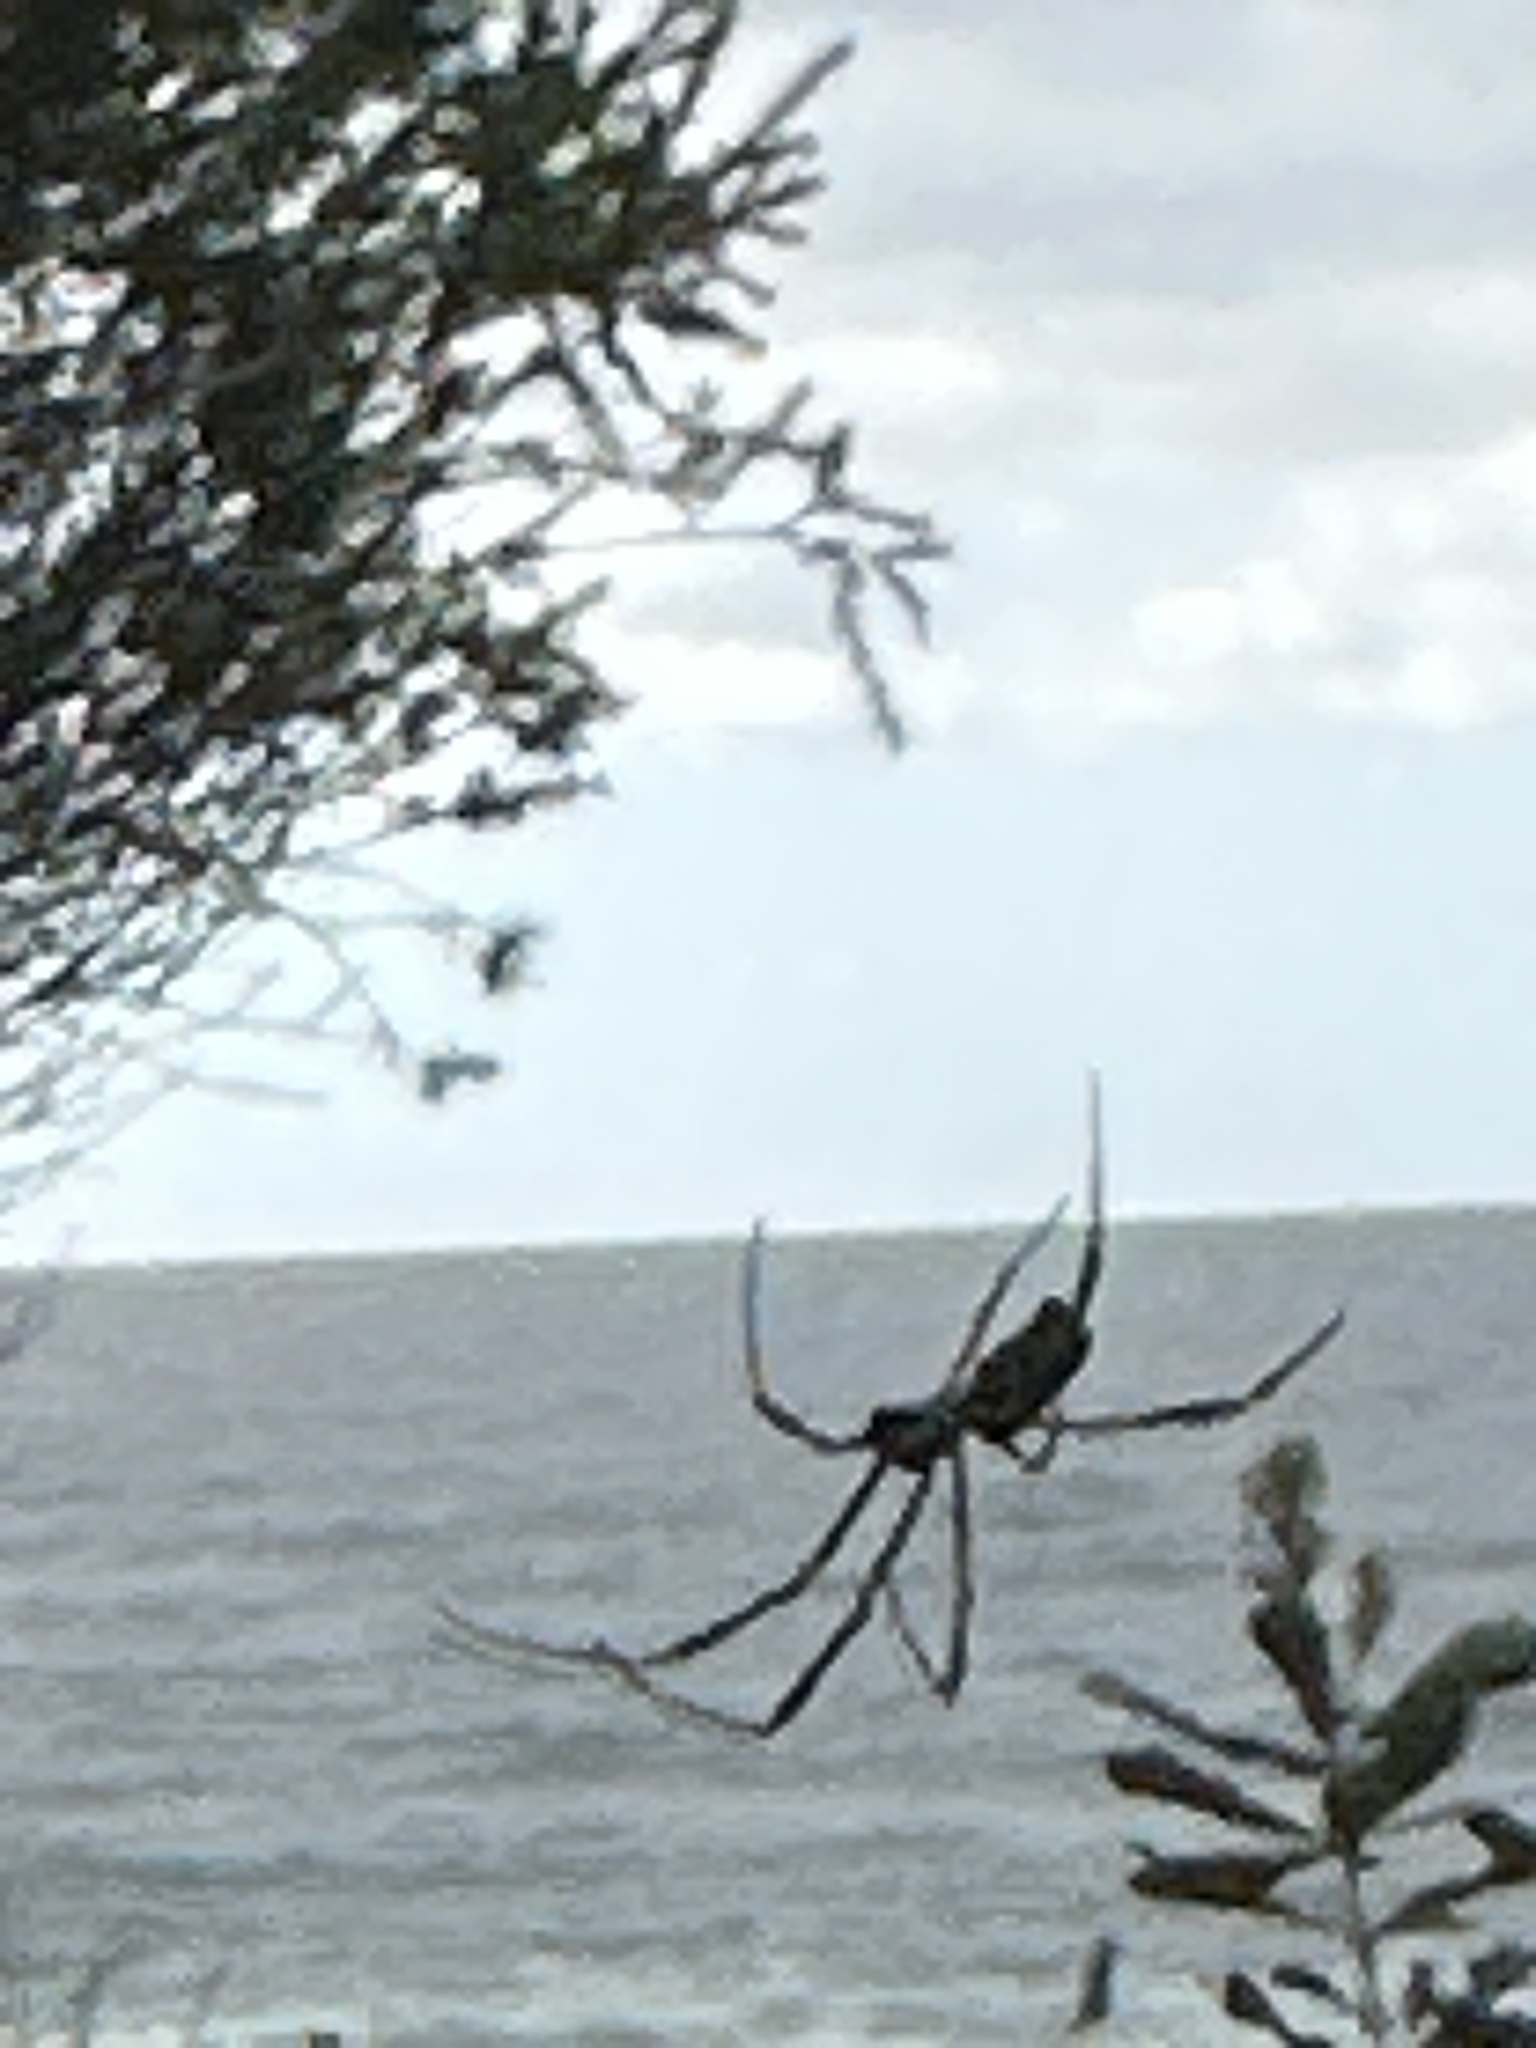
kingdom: Animalia
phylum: Arthropoda
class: Arachnida
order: Araneae
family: Araneidae
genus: Trichonephila
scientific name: Trichonephila plumipes
